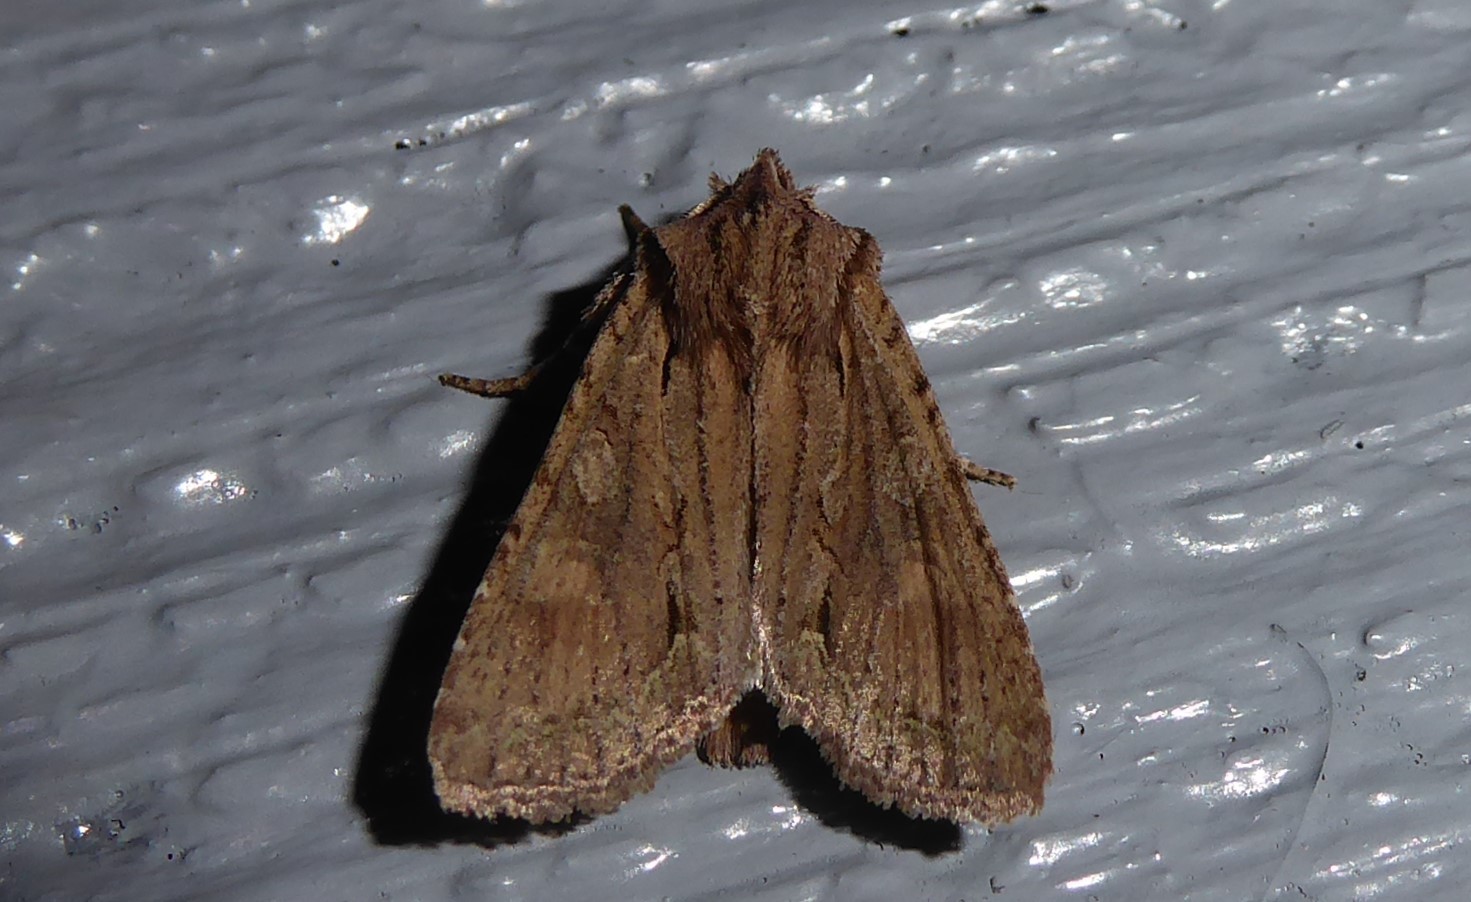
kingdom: Animalia
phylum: Arthropoda
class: Insecta
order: Lepidoptera
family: Noctuidae
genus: Ichneutica
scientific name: Ichneutica
